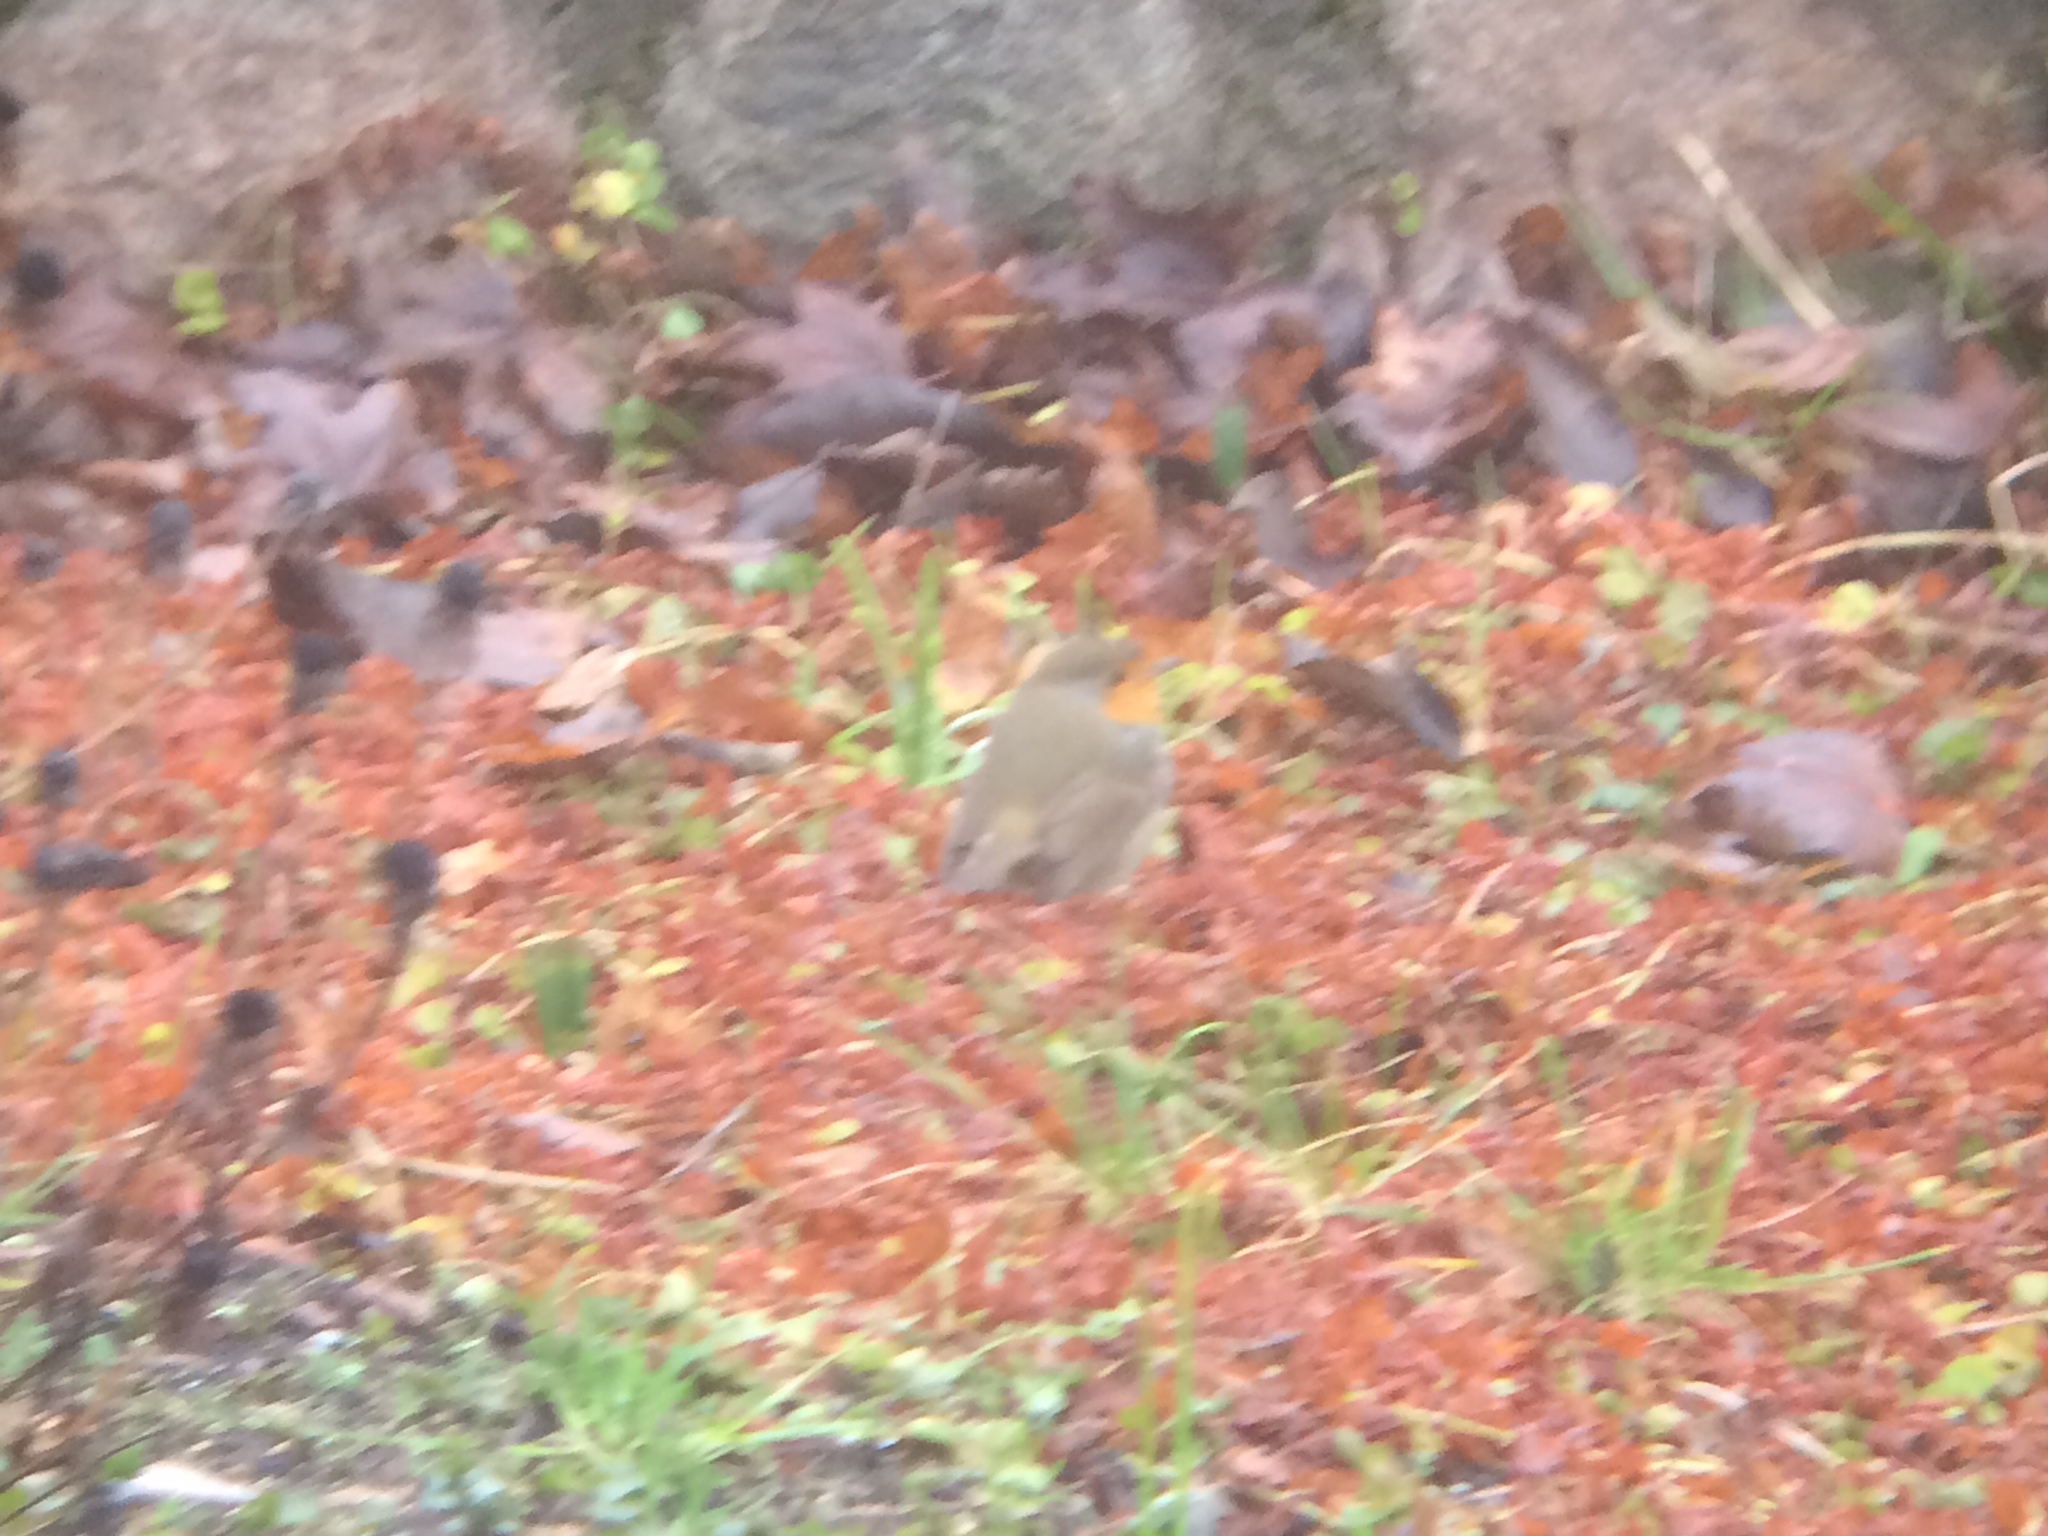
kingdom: Animalia
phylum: Chordata
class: Aves
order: Passeriformes
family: Muscicapidae
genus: Erithacus
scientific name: Erithacus rubecula
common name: European robin
